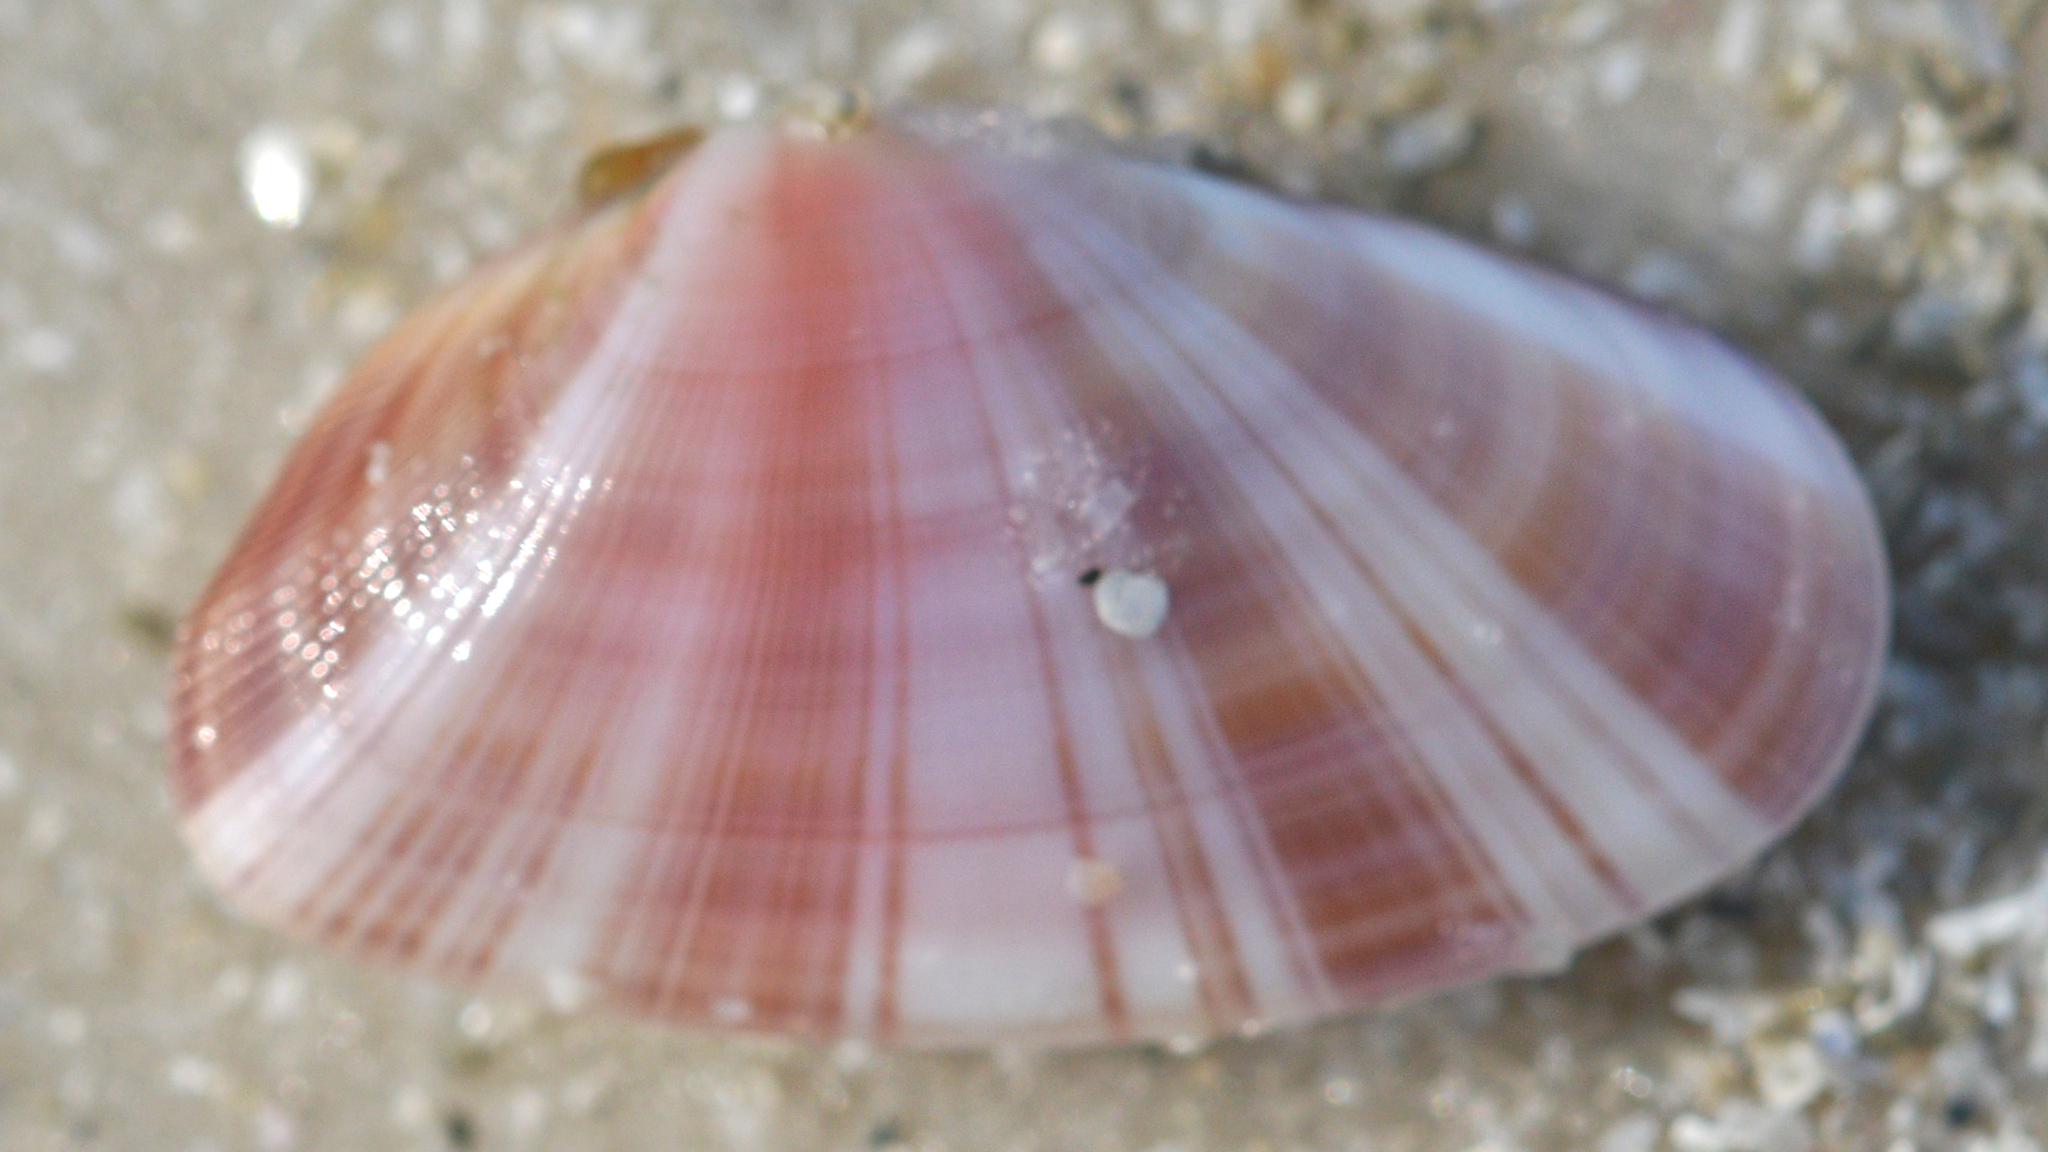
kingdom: Animalia
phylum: Mollusca
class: Bivalvia
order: Cardiida
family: Donacidae
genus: Donax
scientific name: Donax variabilis
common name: Butterfly shell
